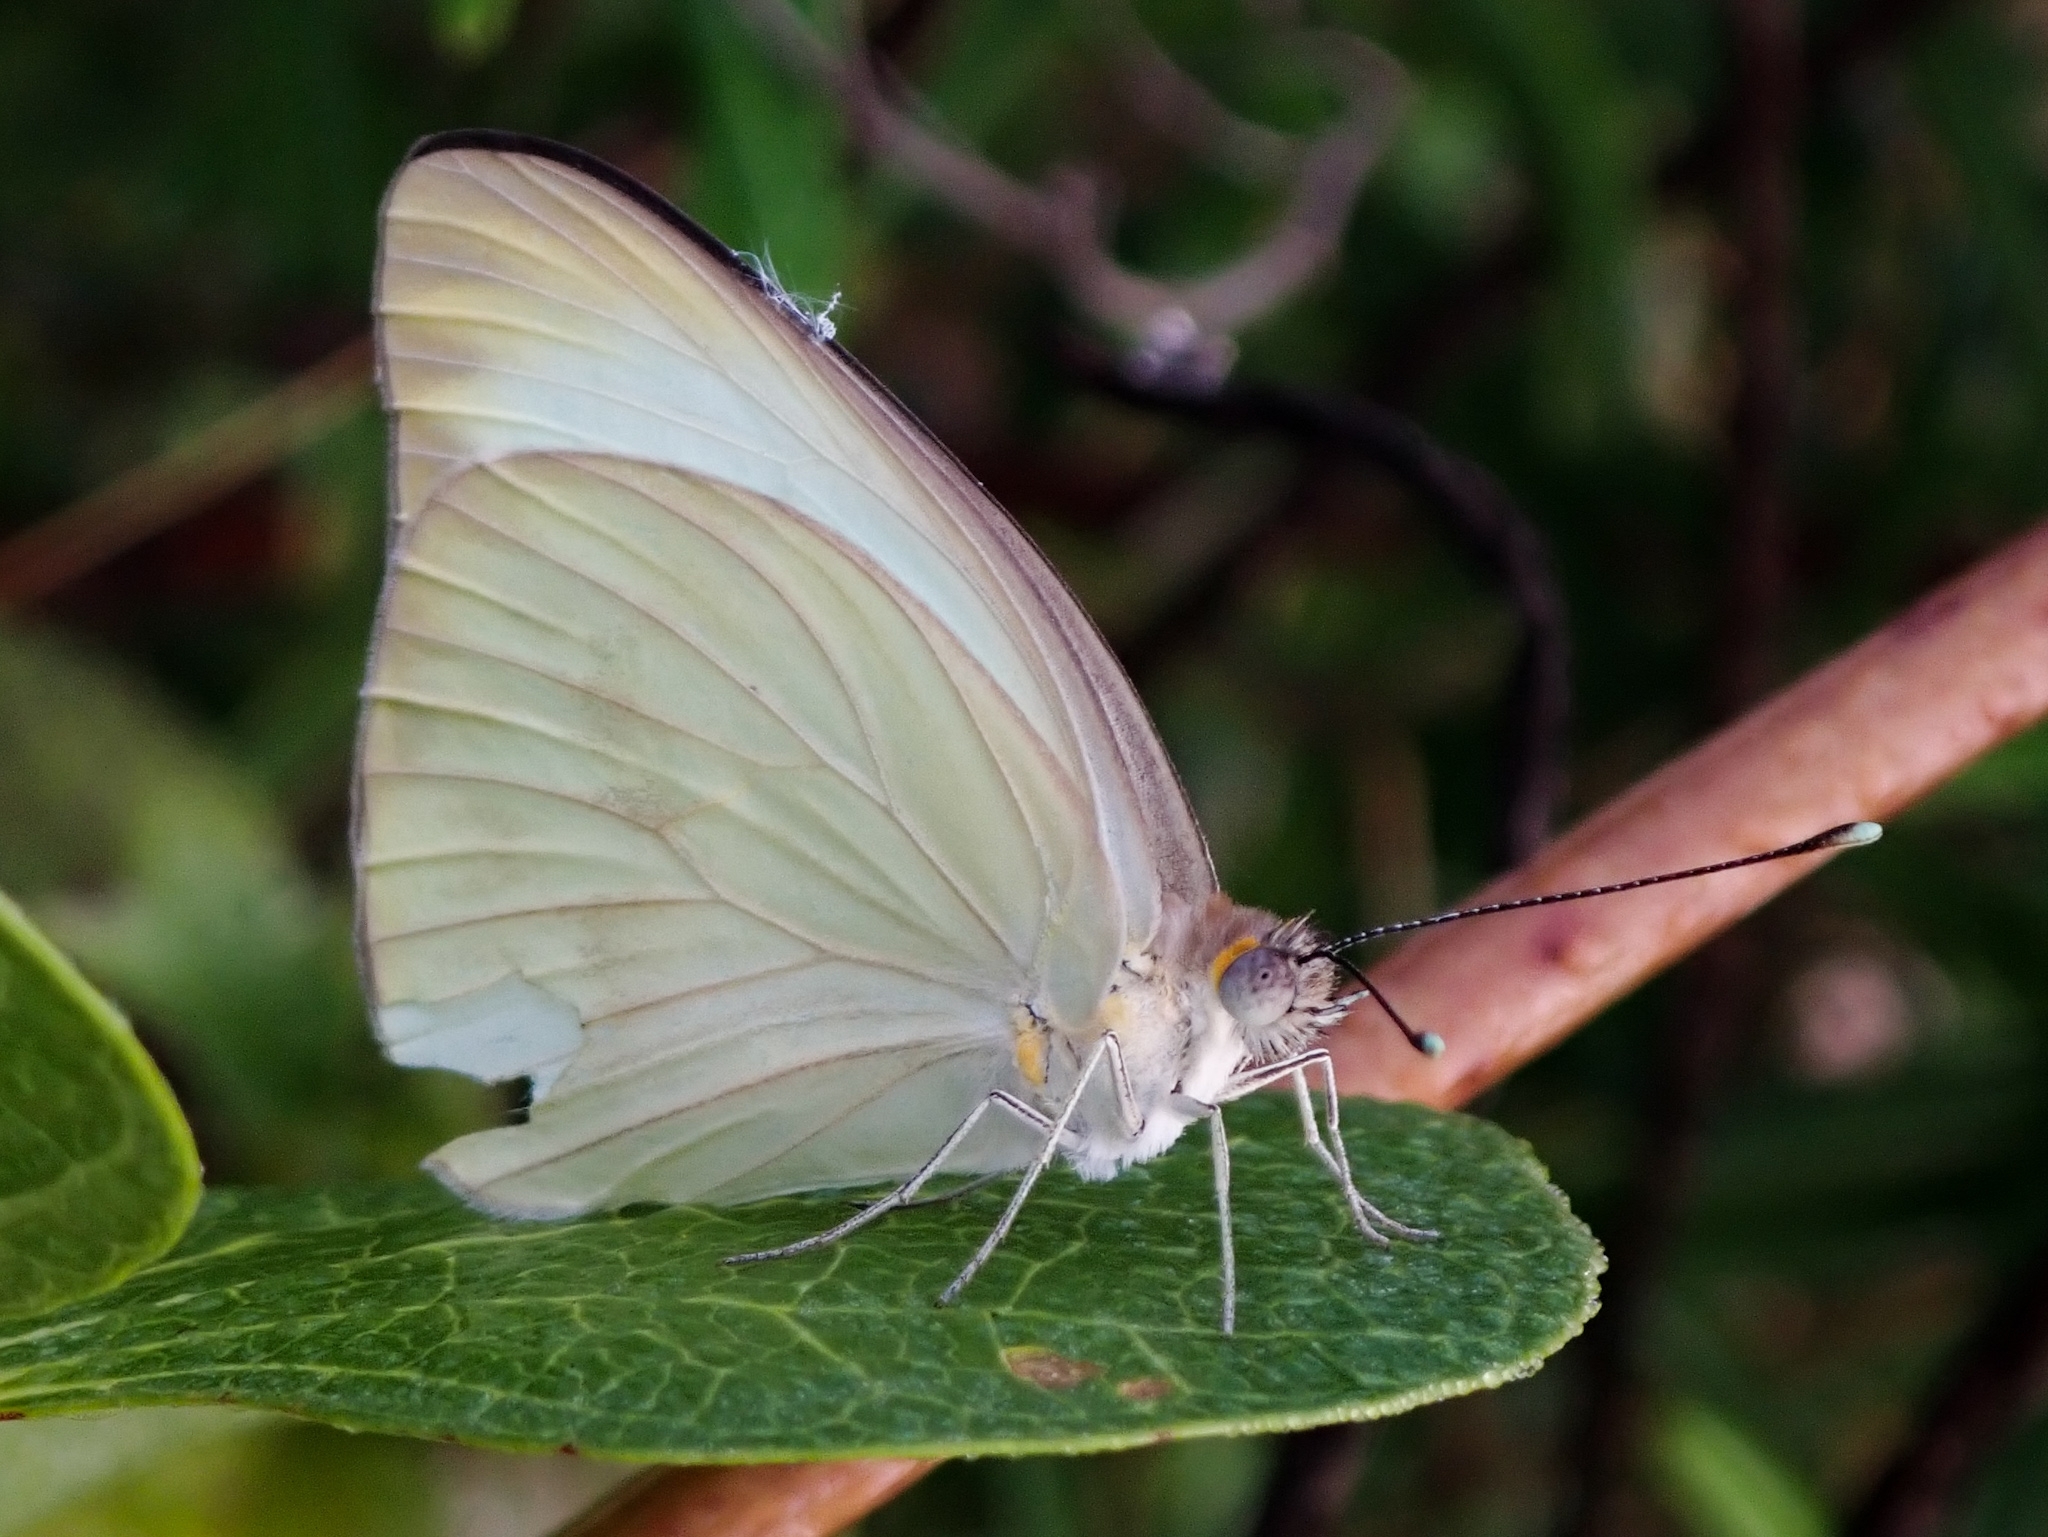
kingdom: Animalia
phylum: Arthropoda
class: Insecta
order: Lepidoptera
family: Pieridae
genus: Ascia
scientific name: Ascia monuste
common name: Great southern white
